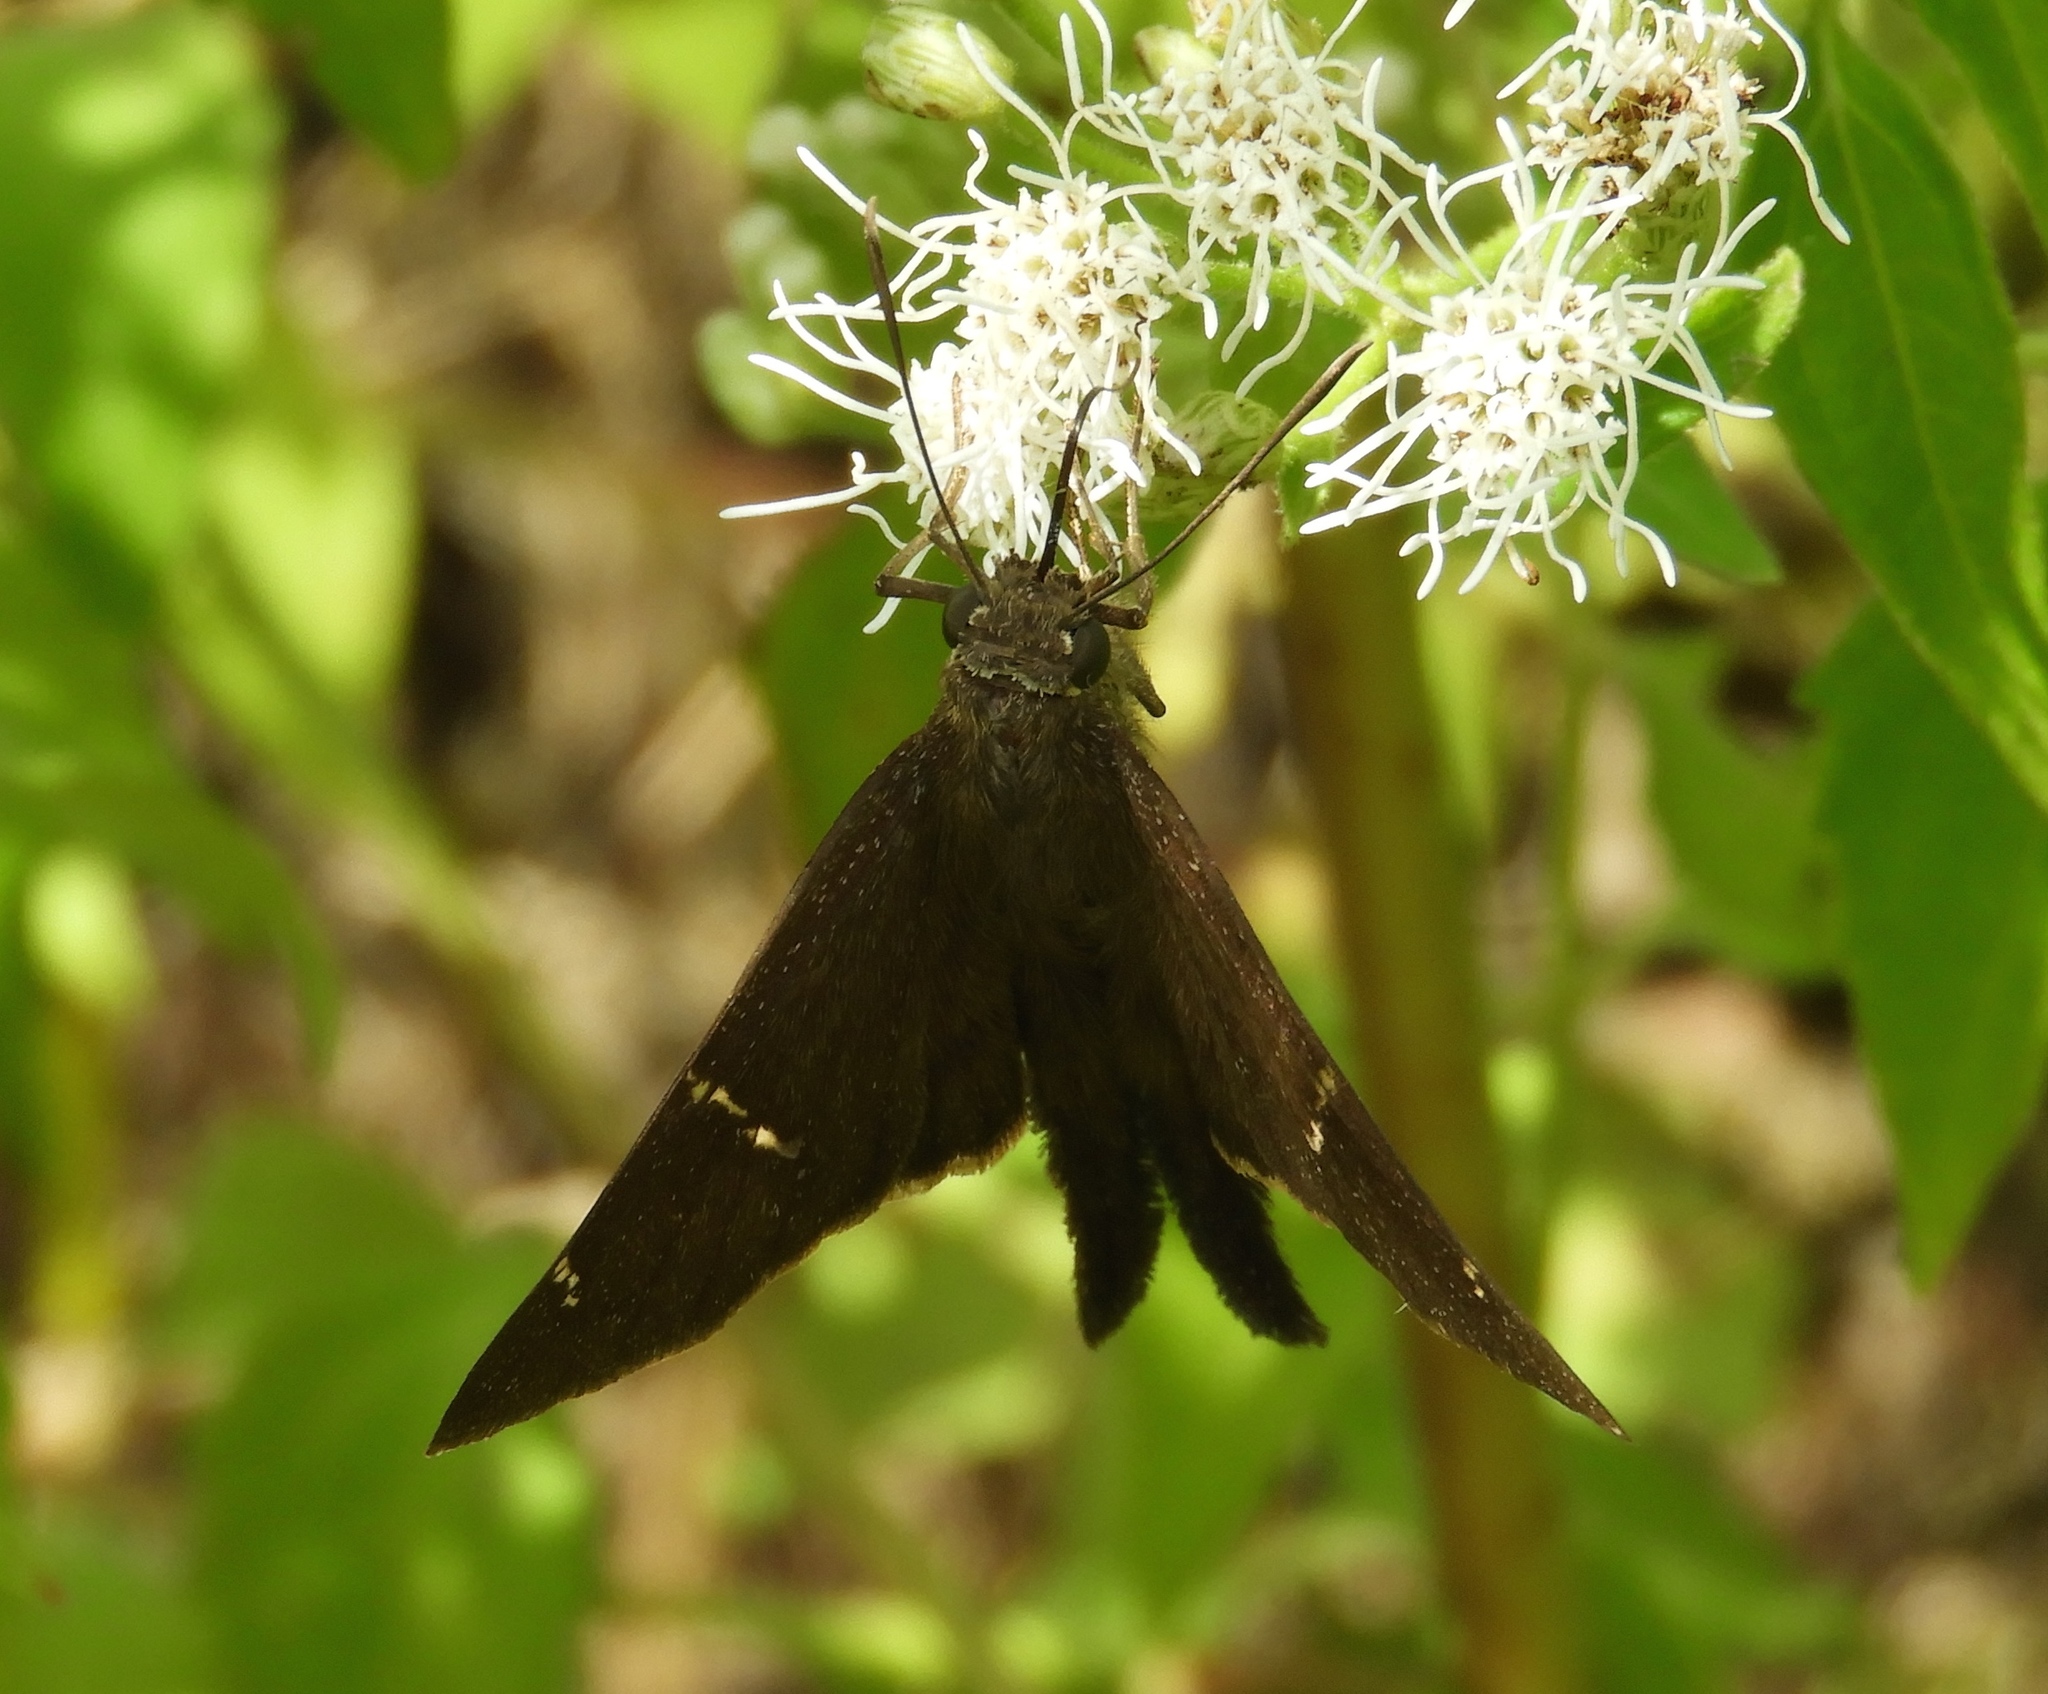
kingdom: Animalia
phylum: Arthropoda
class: Insecta
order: Lepidoptera
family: Hesperiidae
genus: Urbanus
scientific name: Urbanus procne
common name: Brown longtail
